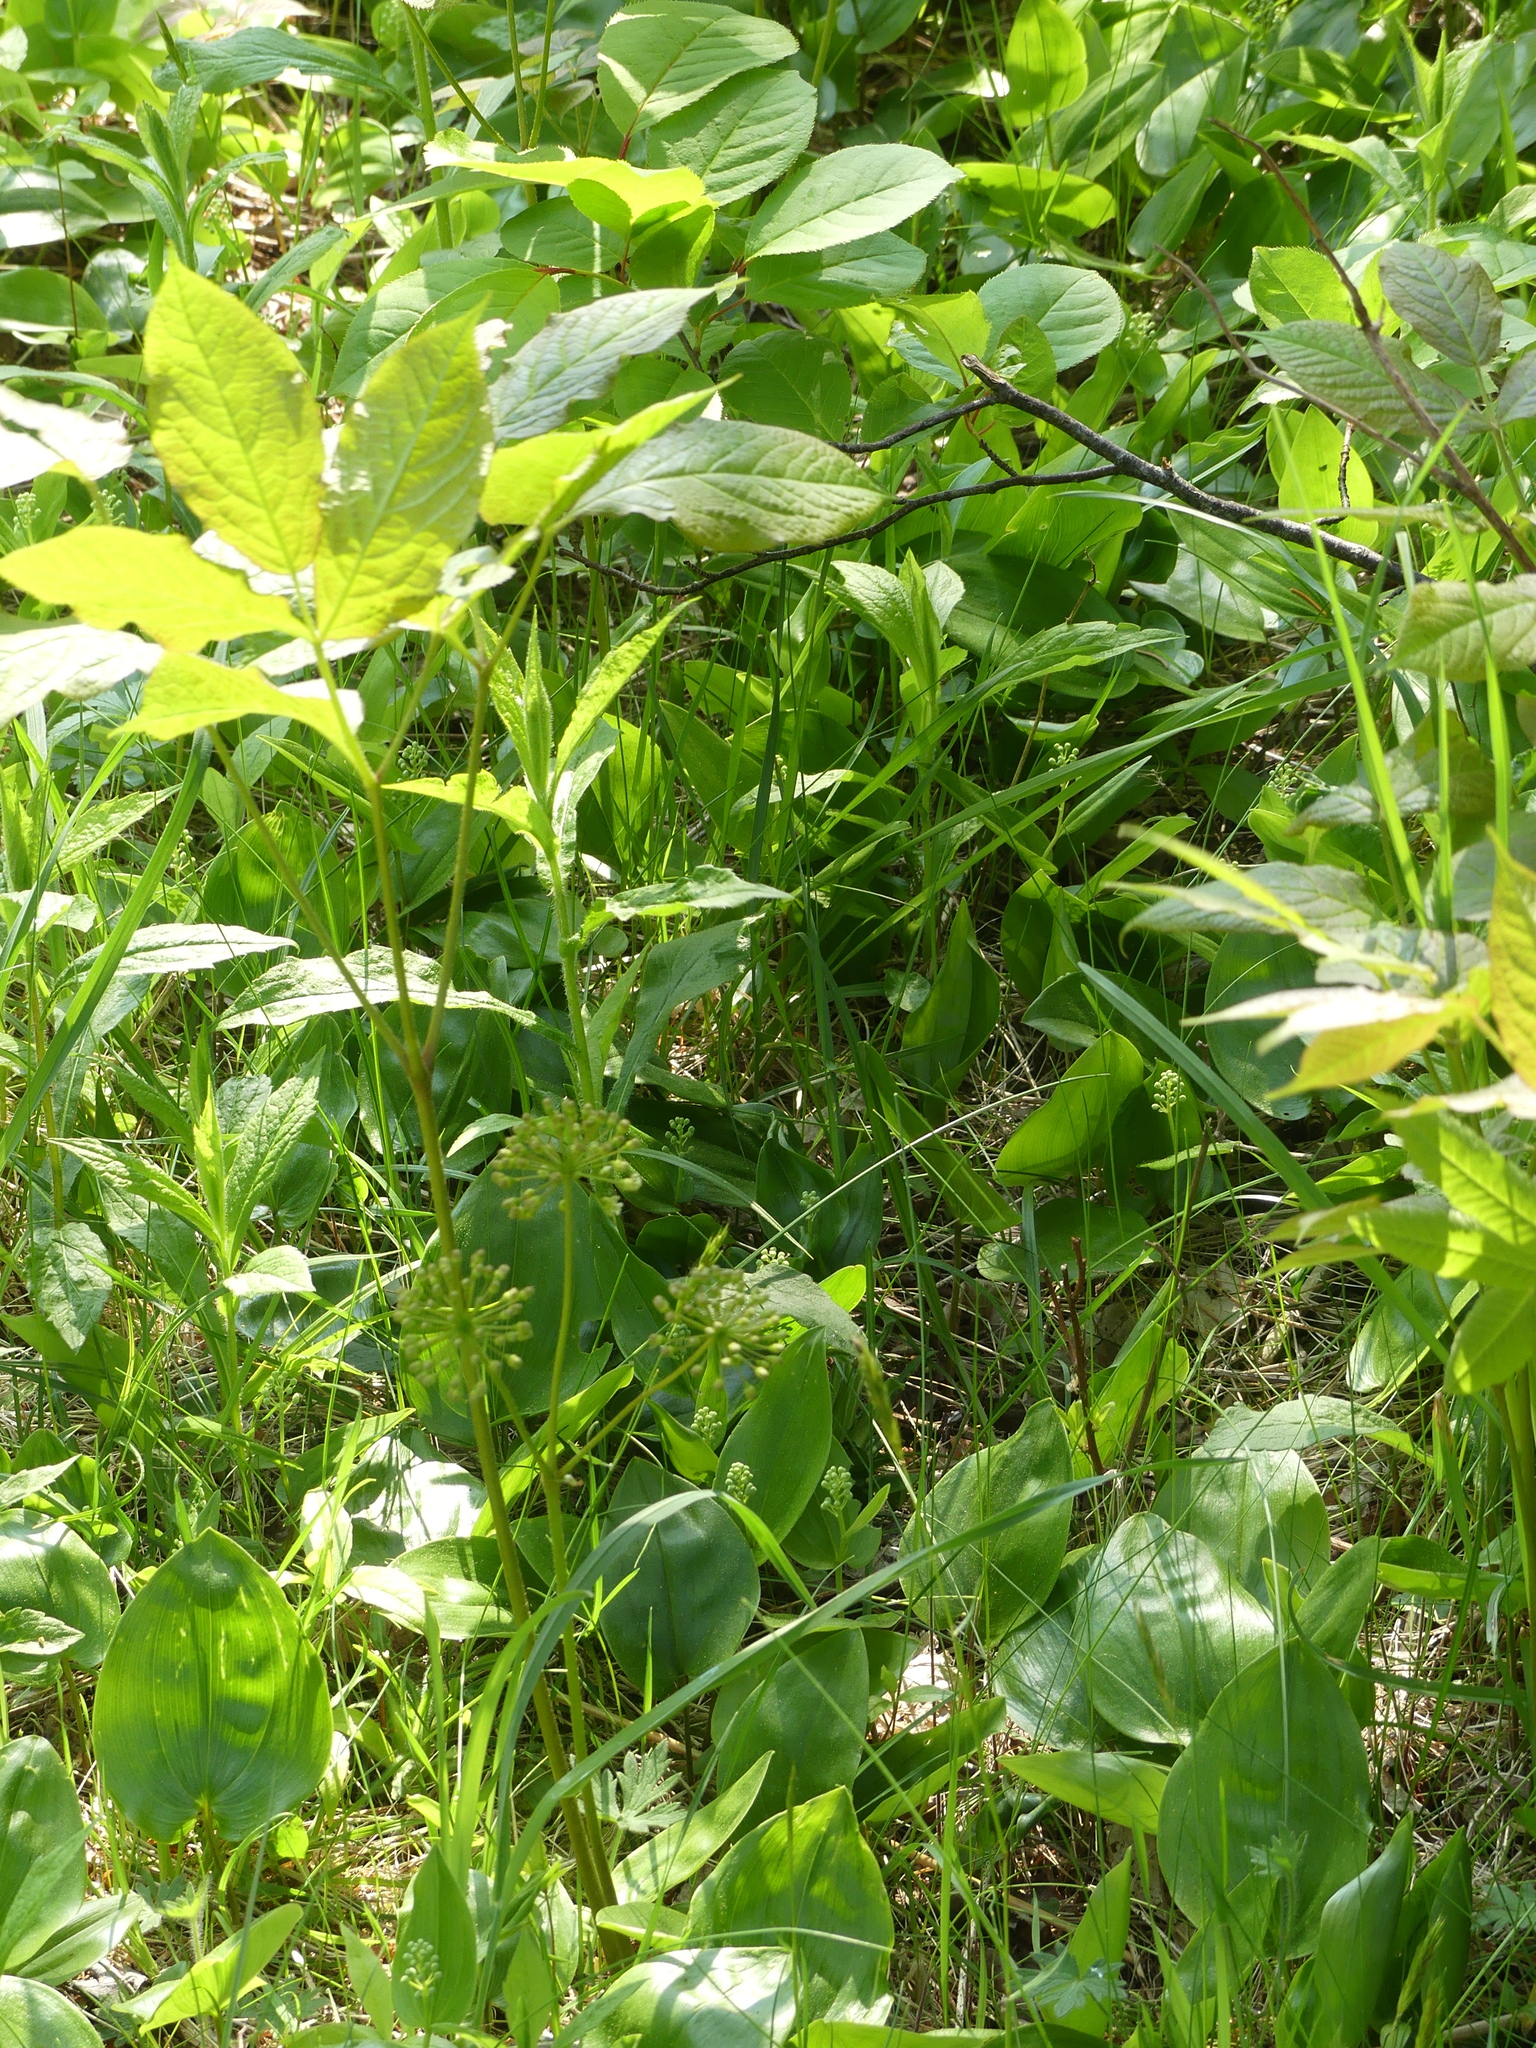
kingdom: Plantae
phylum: Tracheophyta
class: Magnoliopsida
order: Apiales
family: Araliaceae
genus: Aralia
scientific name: Aralia nudicaulis
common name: Wild sarsaparilla
